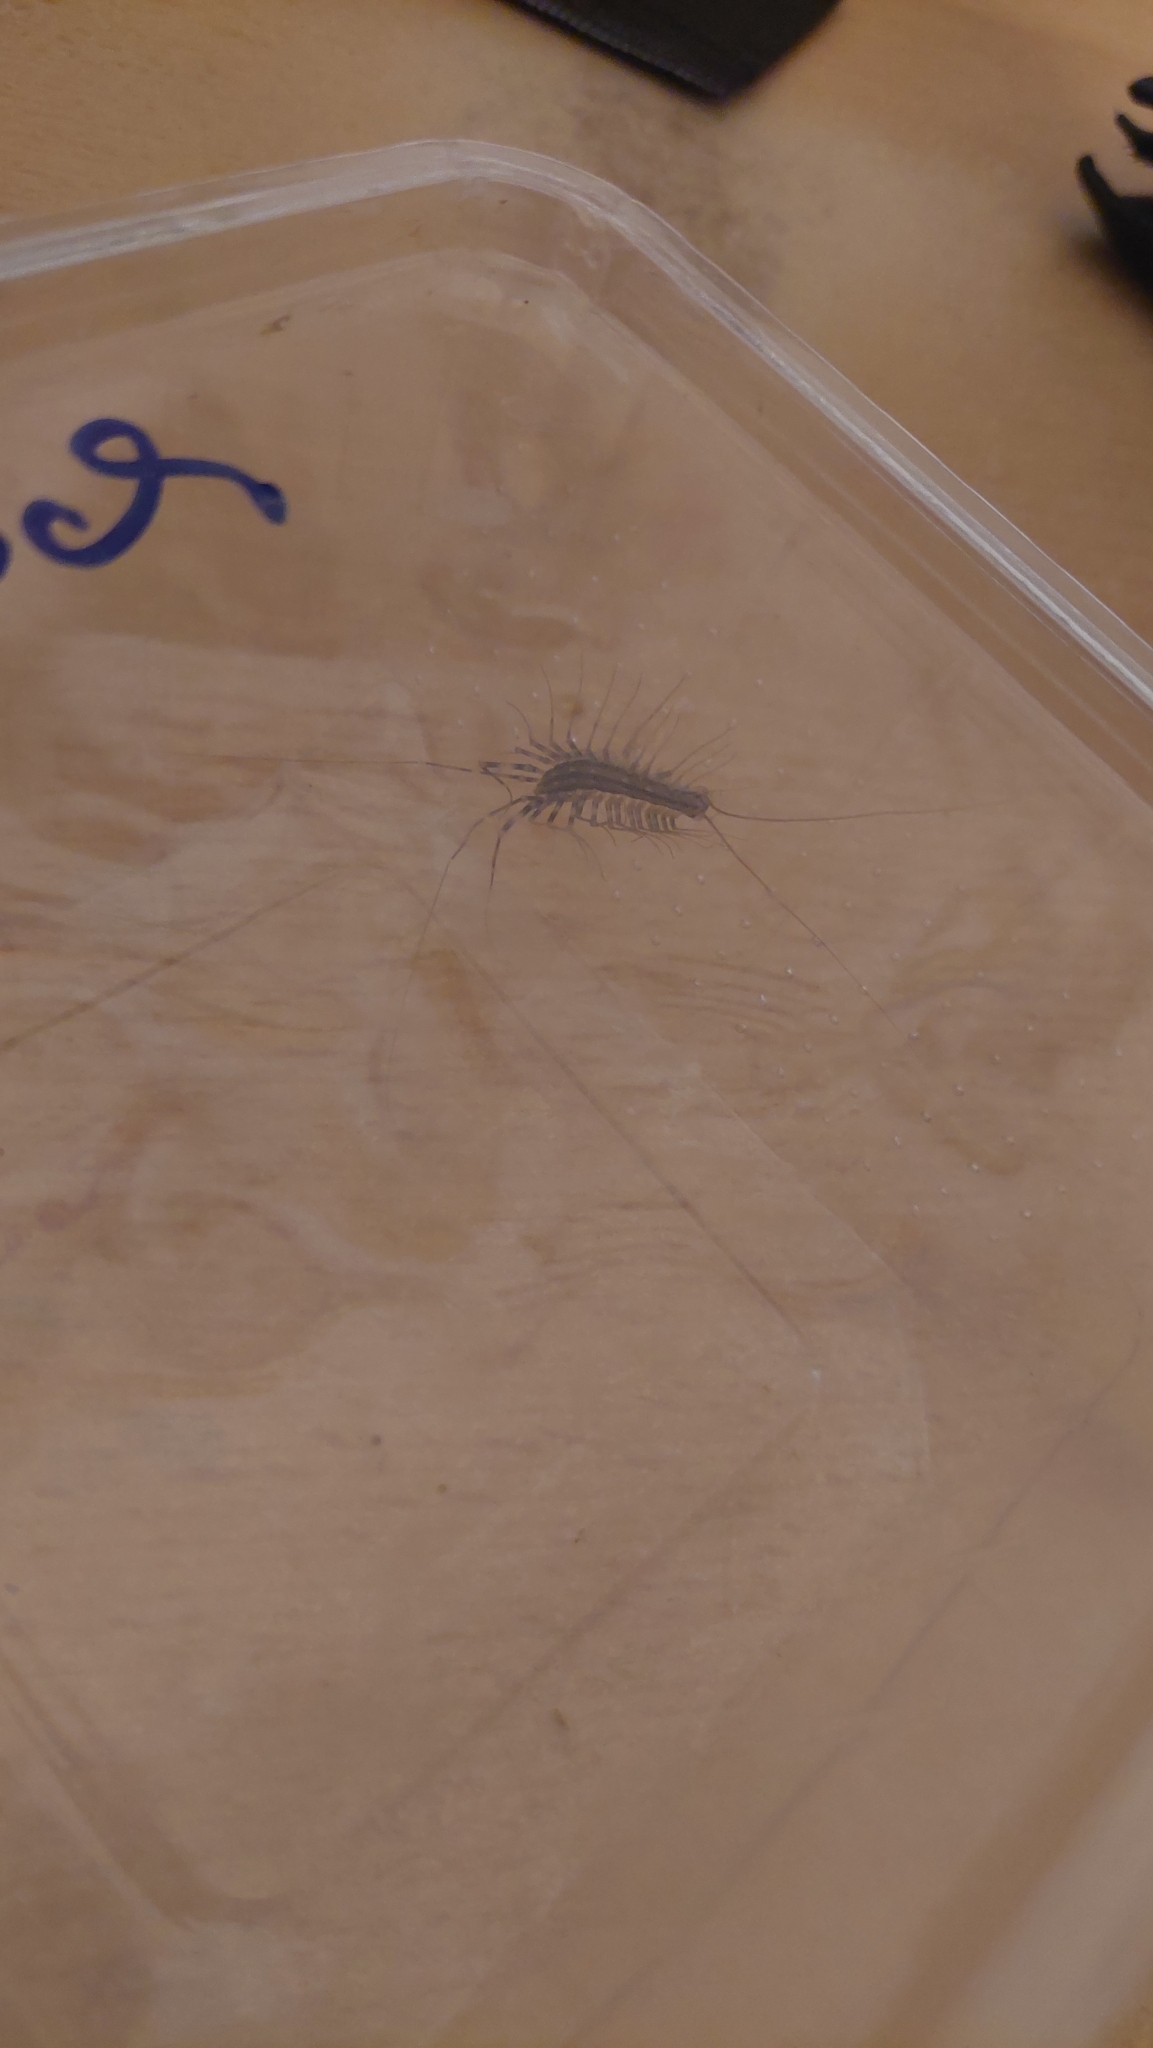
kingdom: Animalia
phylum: Arthropoda
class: Chilopoda
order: Scutigeromorpha
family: Scutigeridae
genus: Scutigera
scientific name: Scutigera coleoptrata
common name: House centipede
